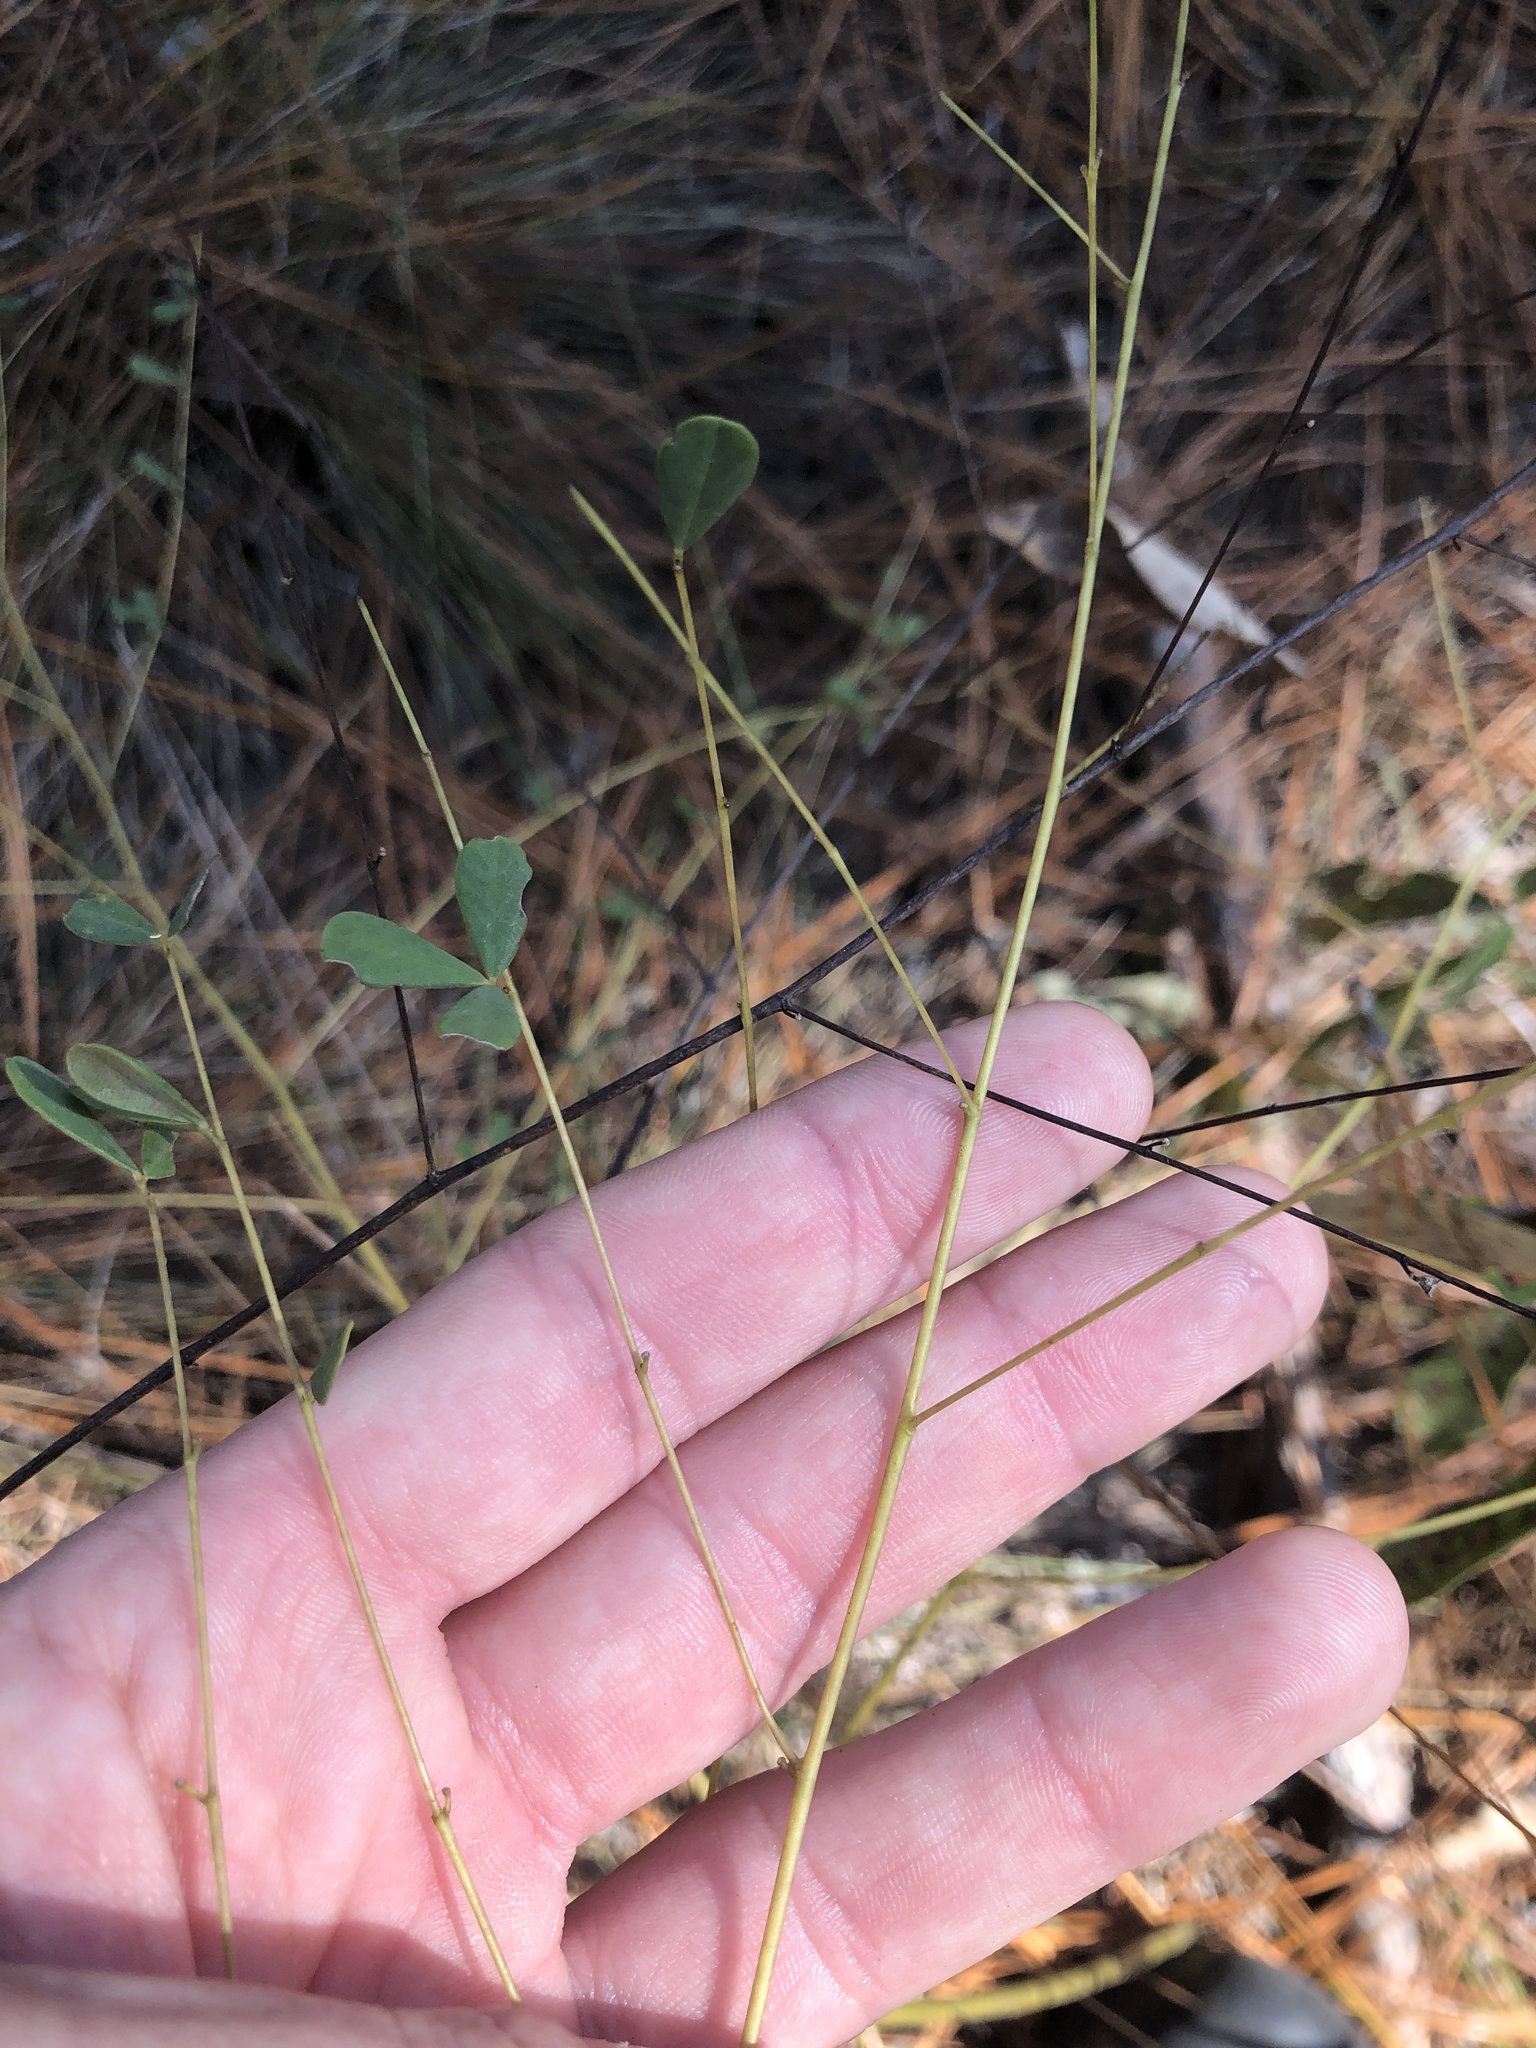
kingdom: Plantae
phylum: Tracheophyta
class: Magnoliopsida
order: Fabales
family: Fabaceae
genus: Baptisia
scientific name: Baptisia tinctoria
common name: Wild indigo
